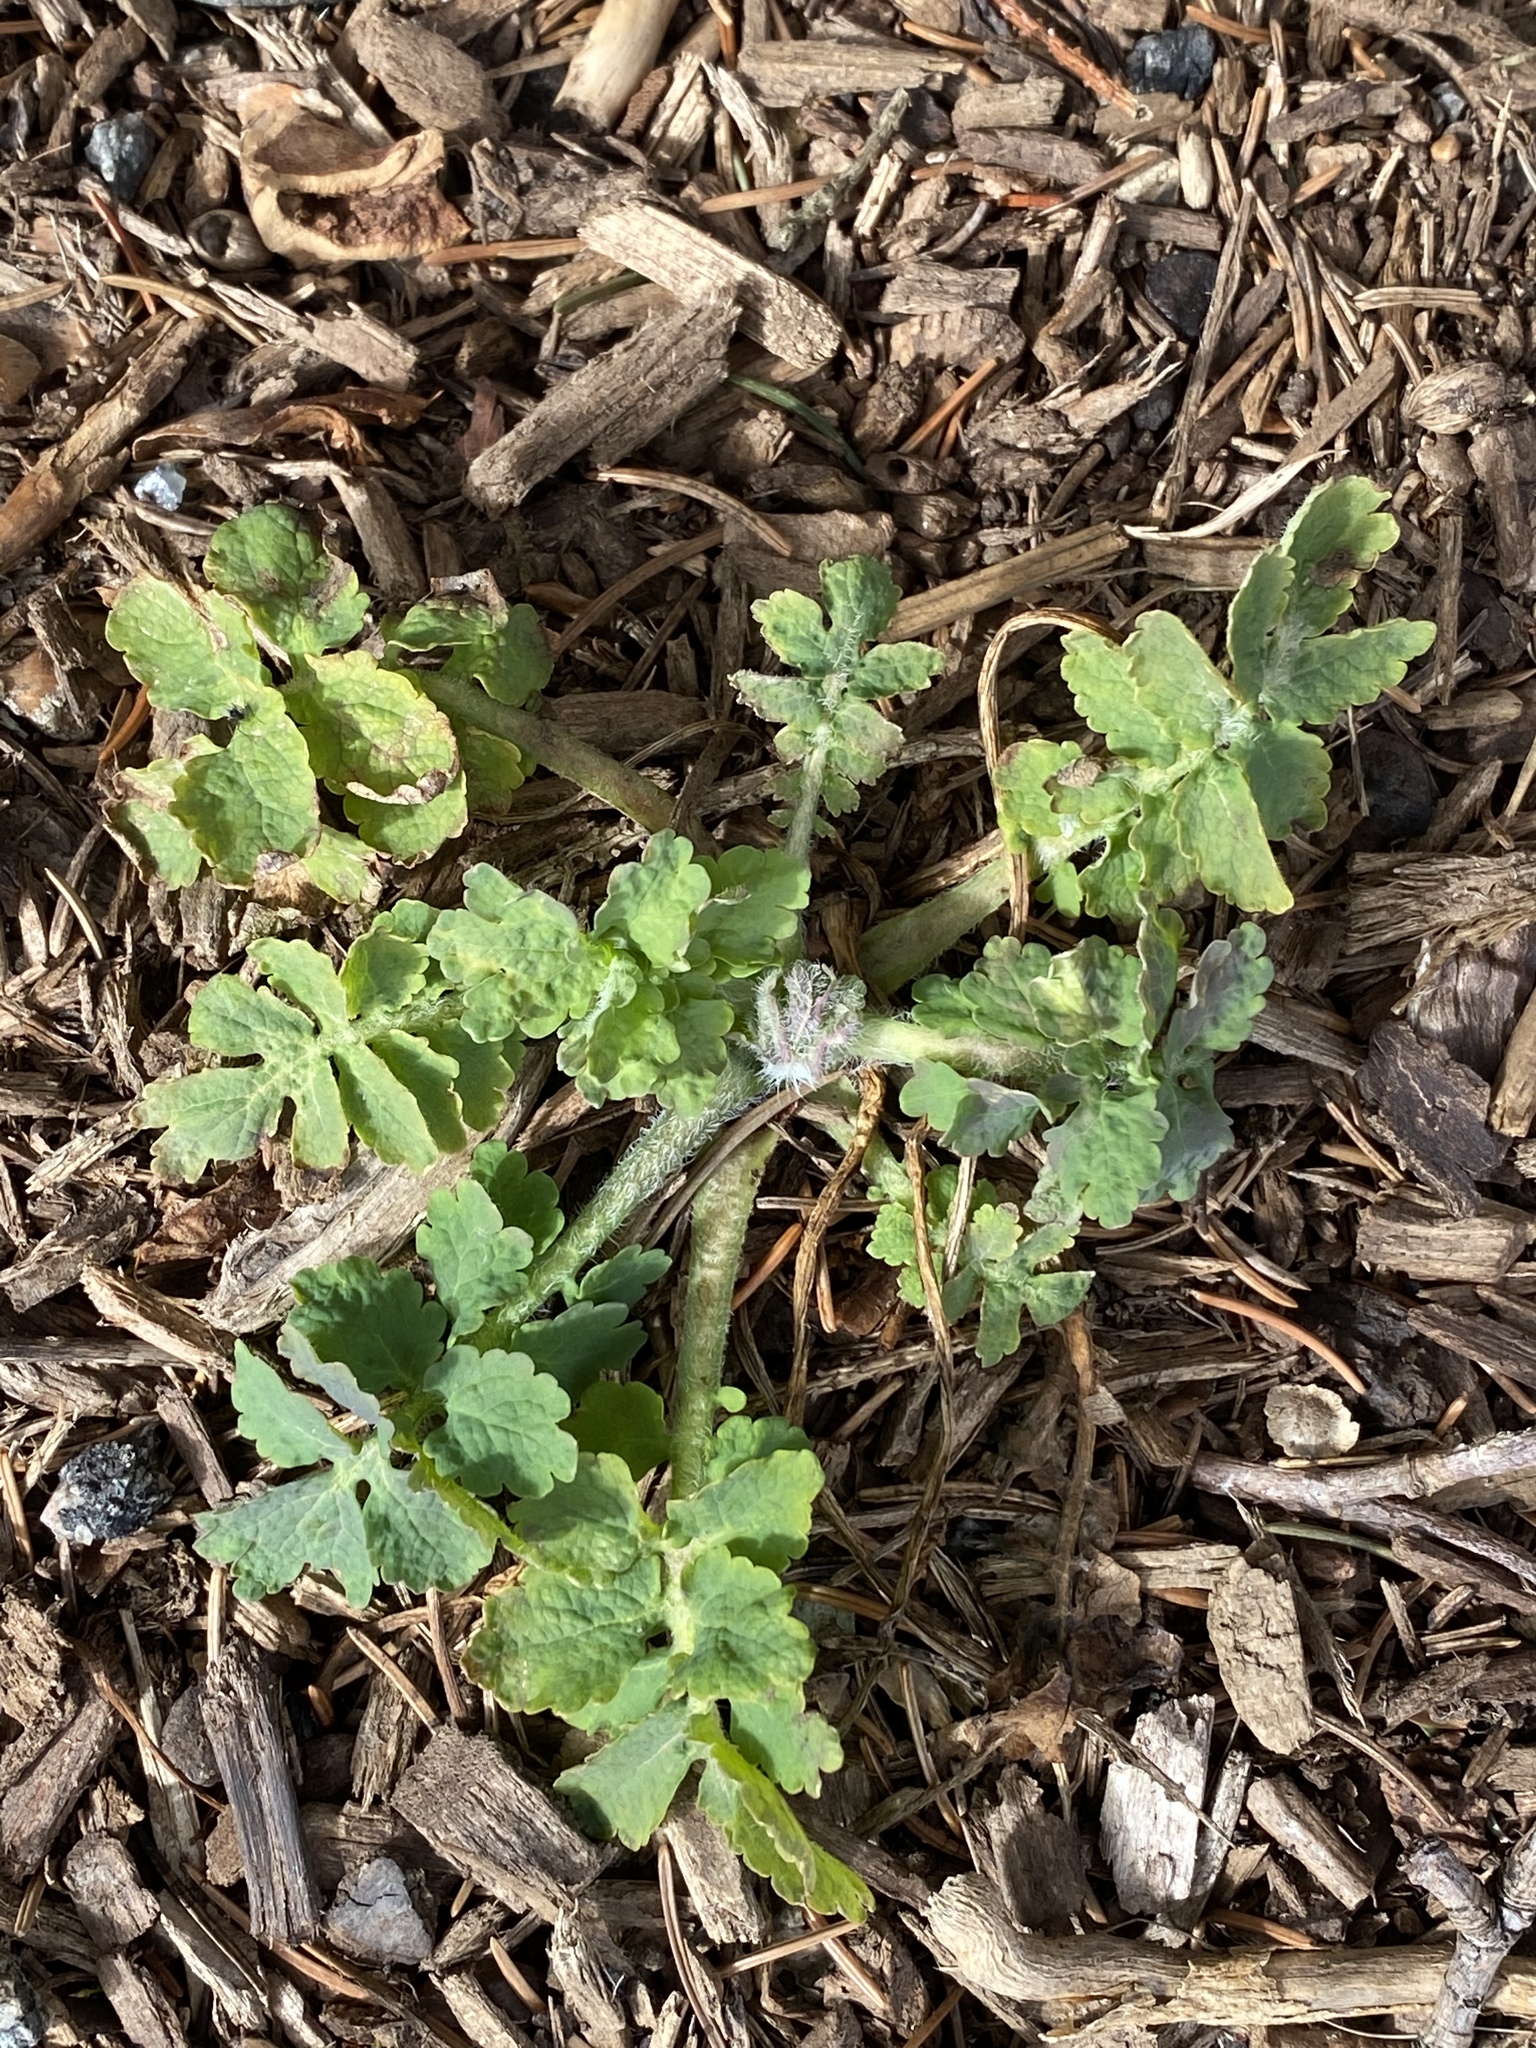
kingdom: Plantae
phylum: Tracheophyta
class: Magnoliopsida
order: Ranunculales
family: Papaveraceae
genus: Chelidonium
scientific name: Chelidonium majus
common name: Greater celandine
